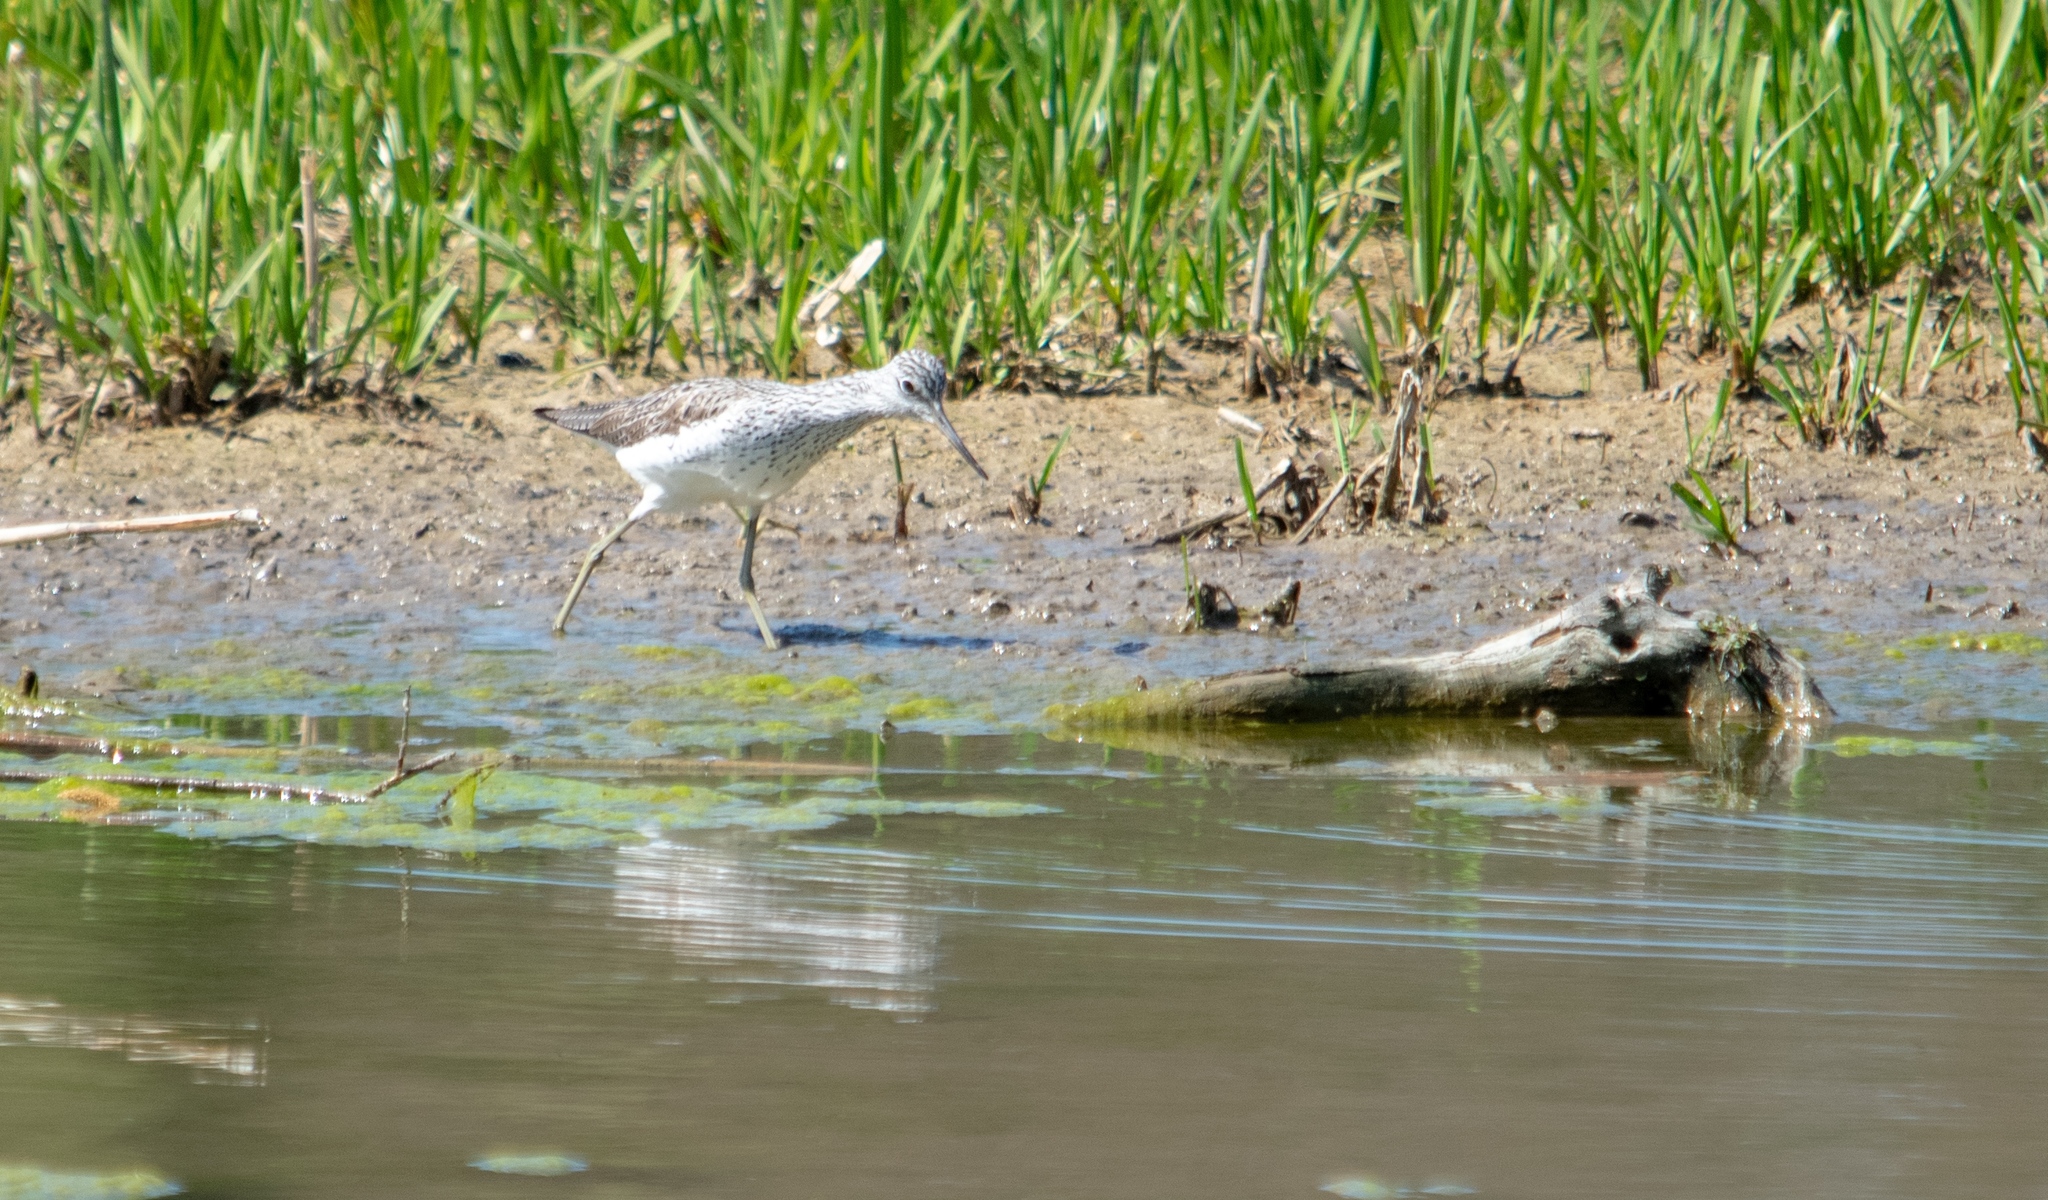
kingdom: Animalia
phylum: Chordata
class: Aves
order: Charadriiformes
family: Scolopacidae
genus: Tringa
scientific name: Tringa nebularia
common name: Common greenshank
